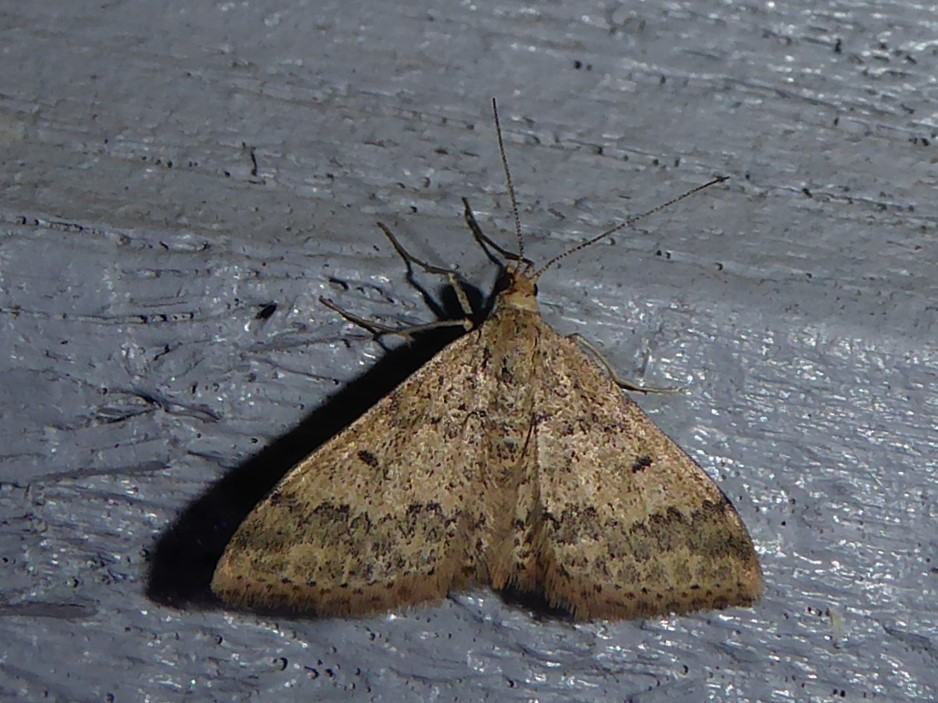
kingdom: Animalia
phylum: Arthropoda
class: Insecta
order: Lepidoptera
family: Geometridae
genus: Scopula
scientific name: Scopula rubraria
